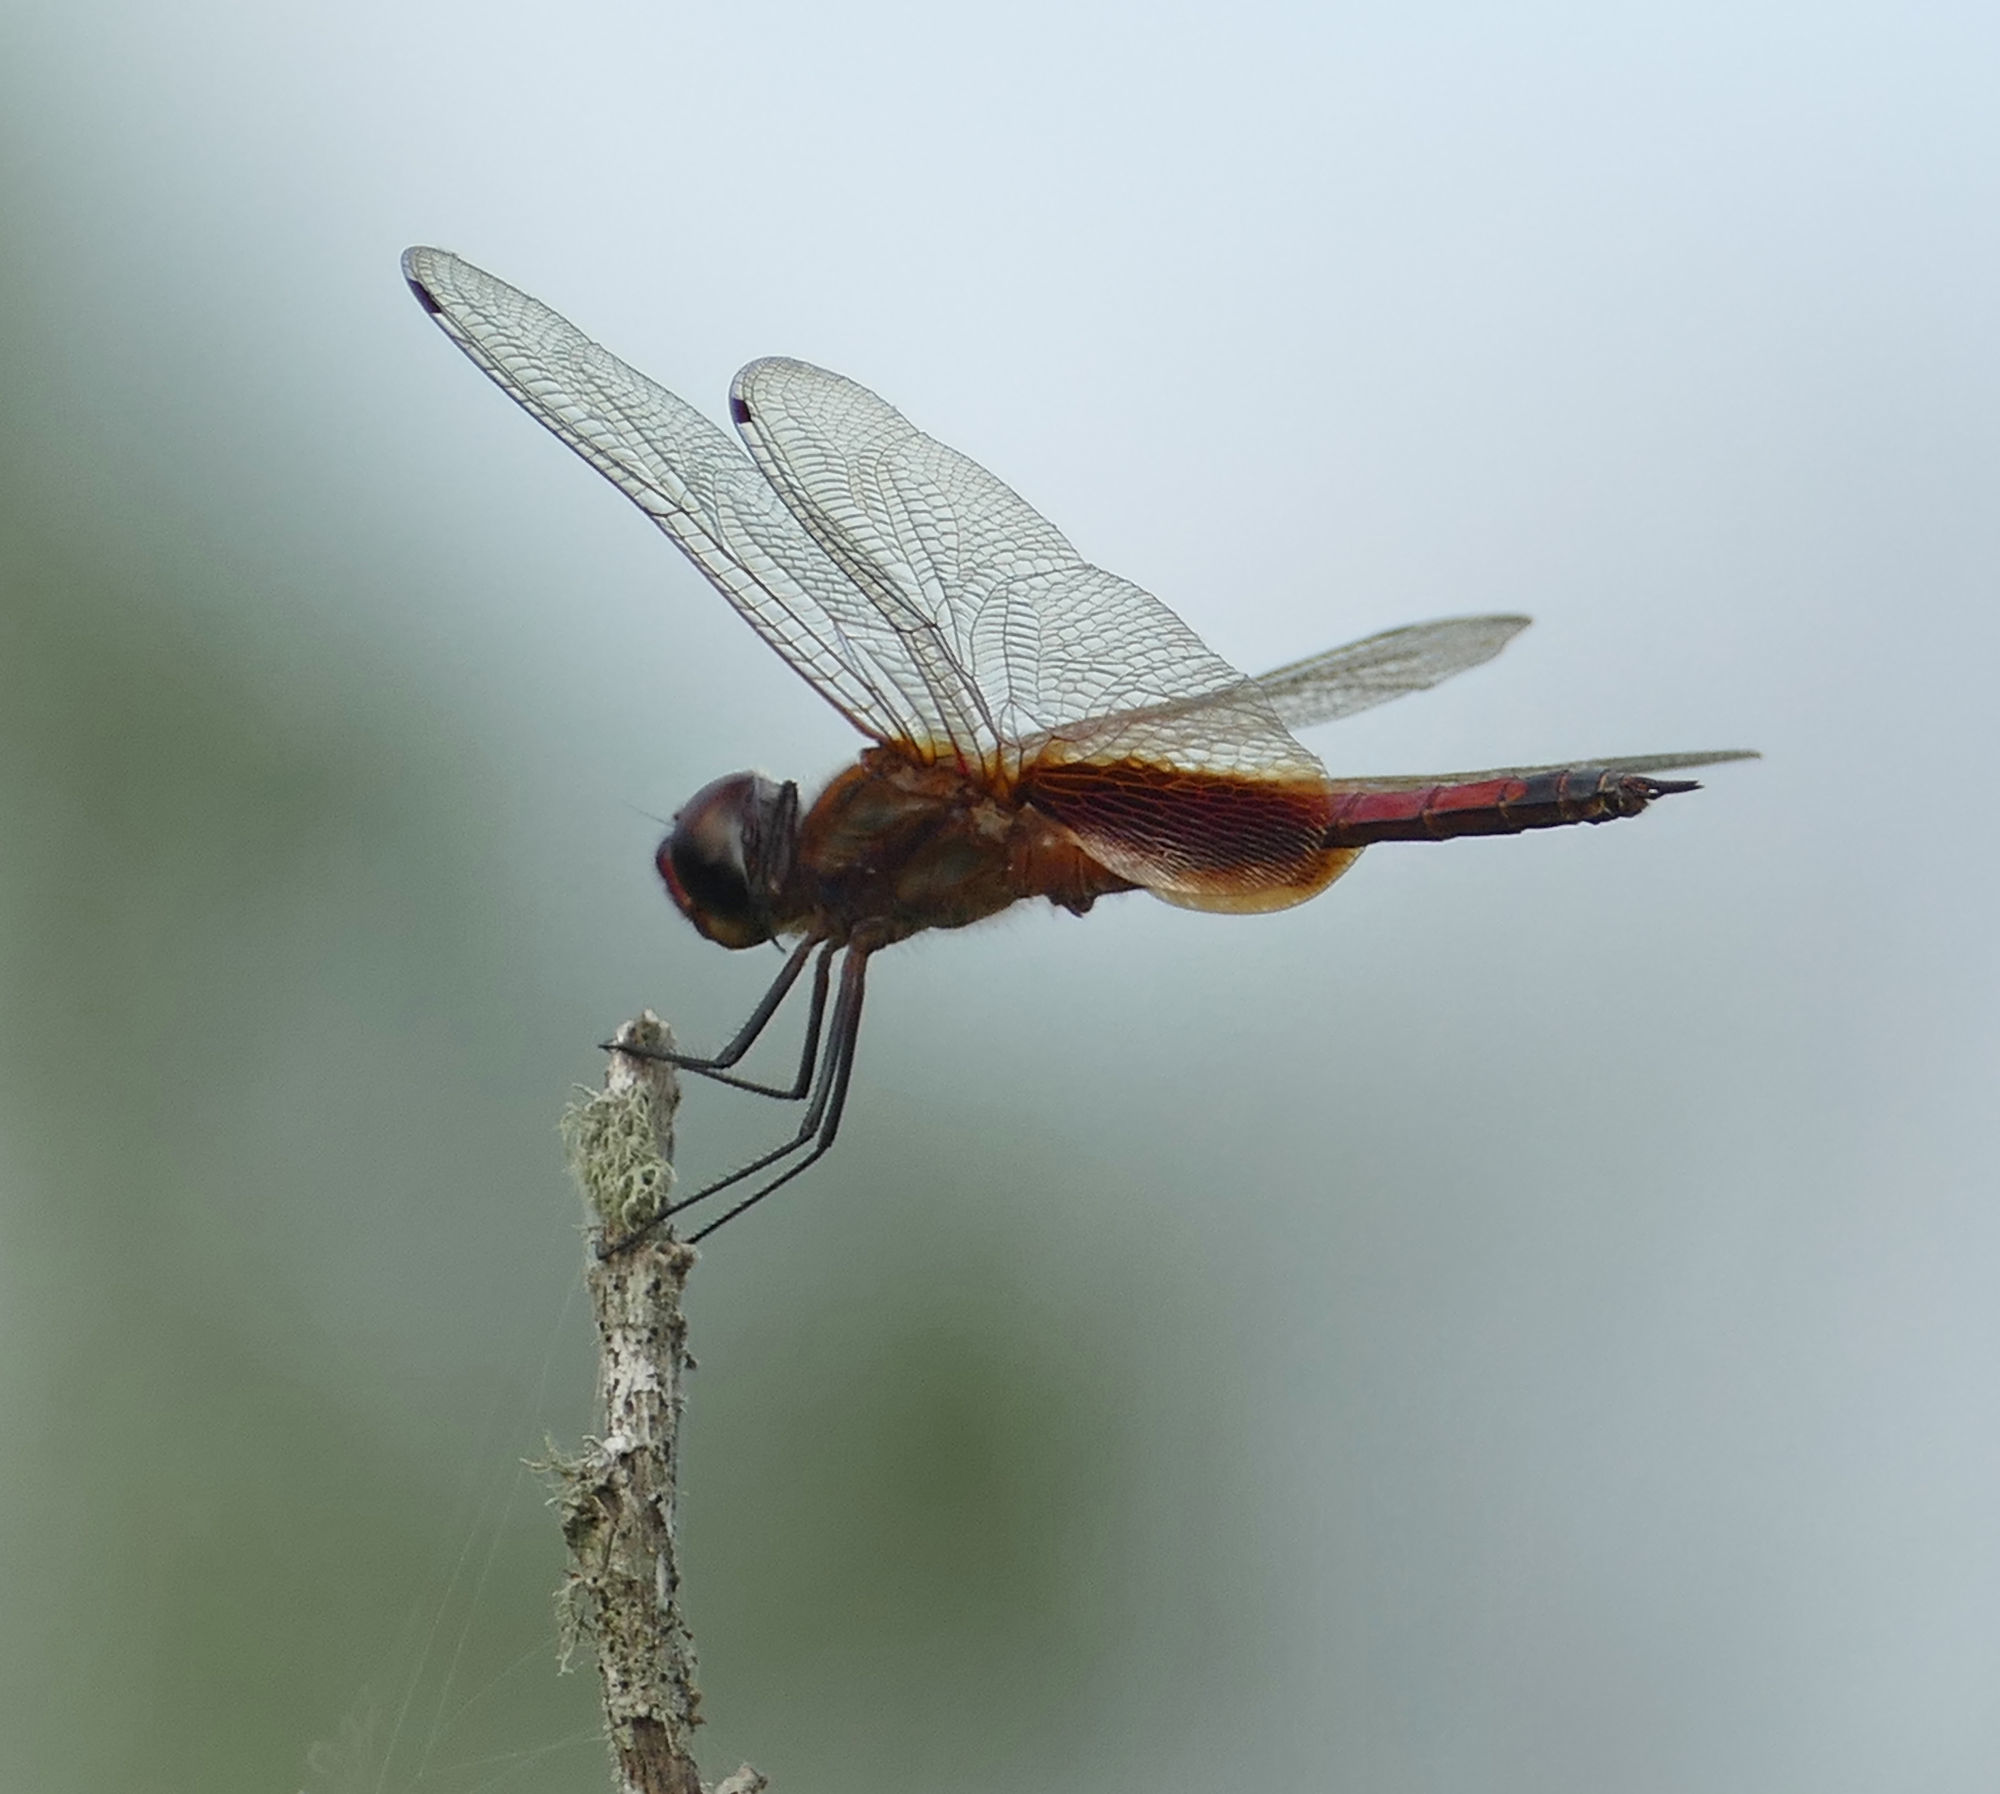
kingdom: Animalia
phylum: Arthropoda
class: Insecta
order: Odonata
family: Libellulidae
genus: Tramea
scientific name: Tramea darwini
